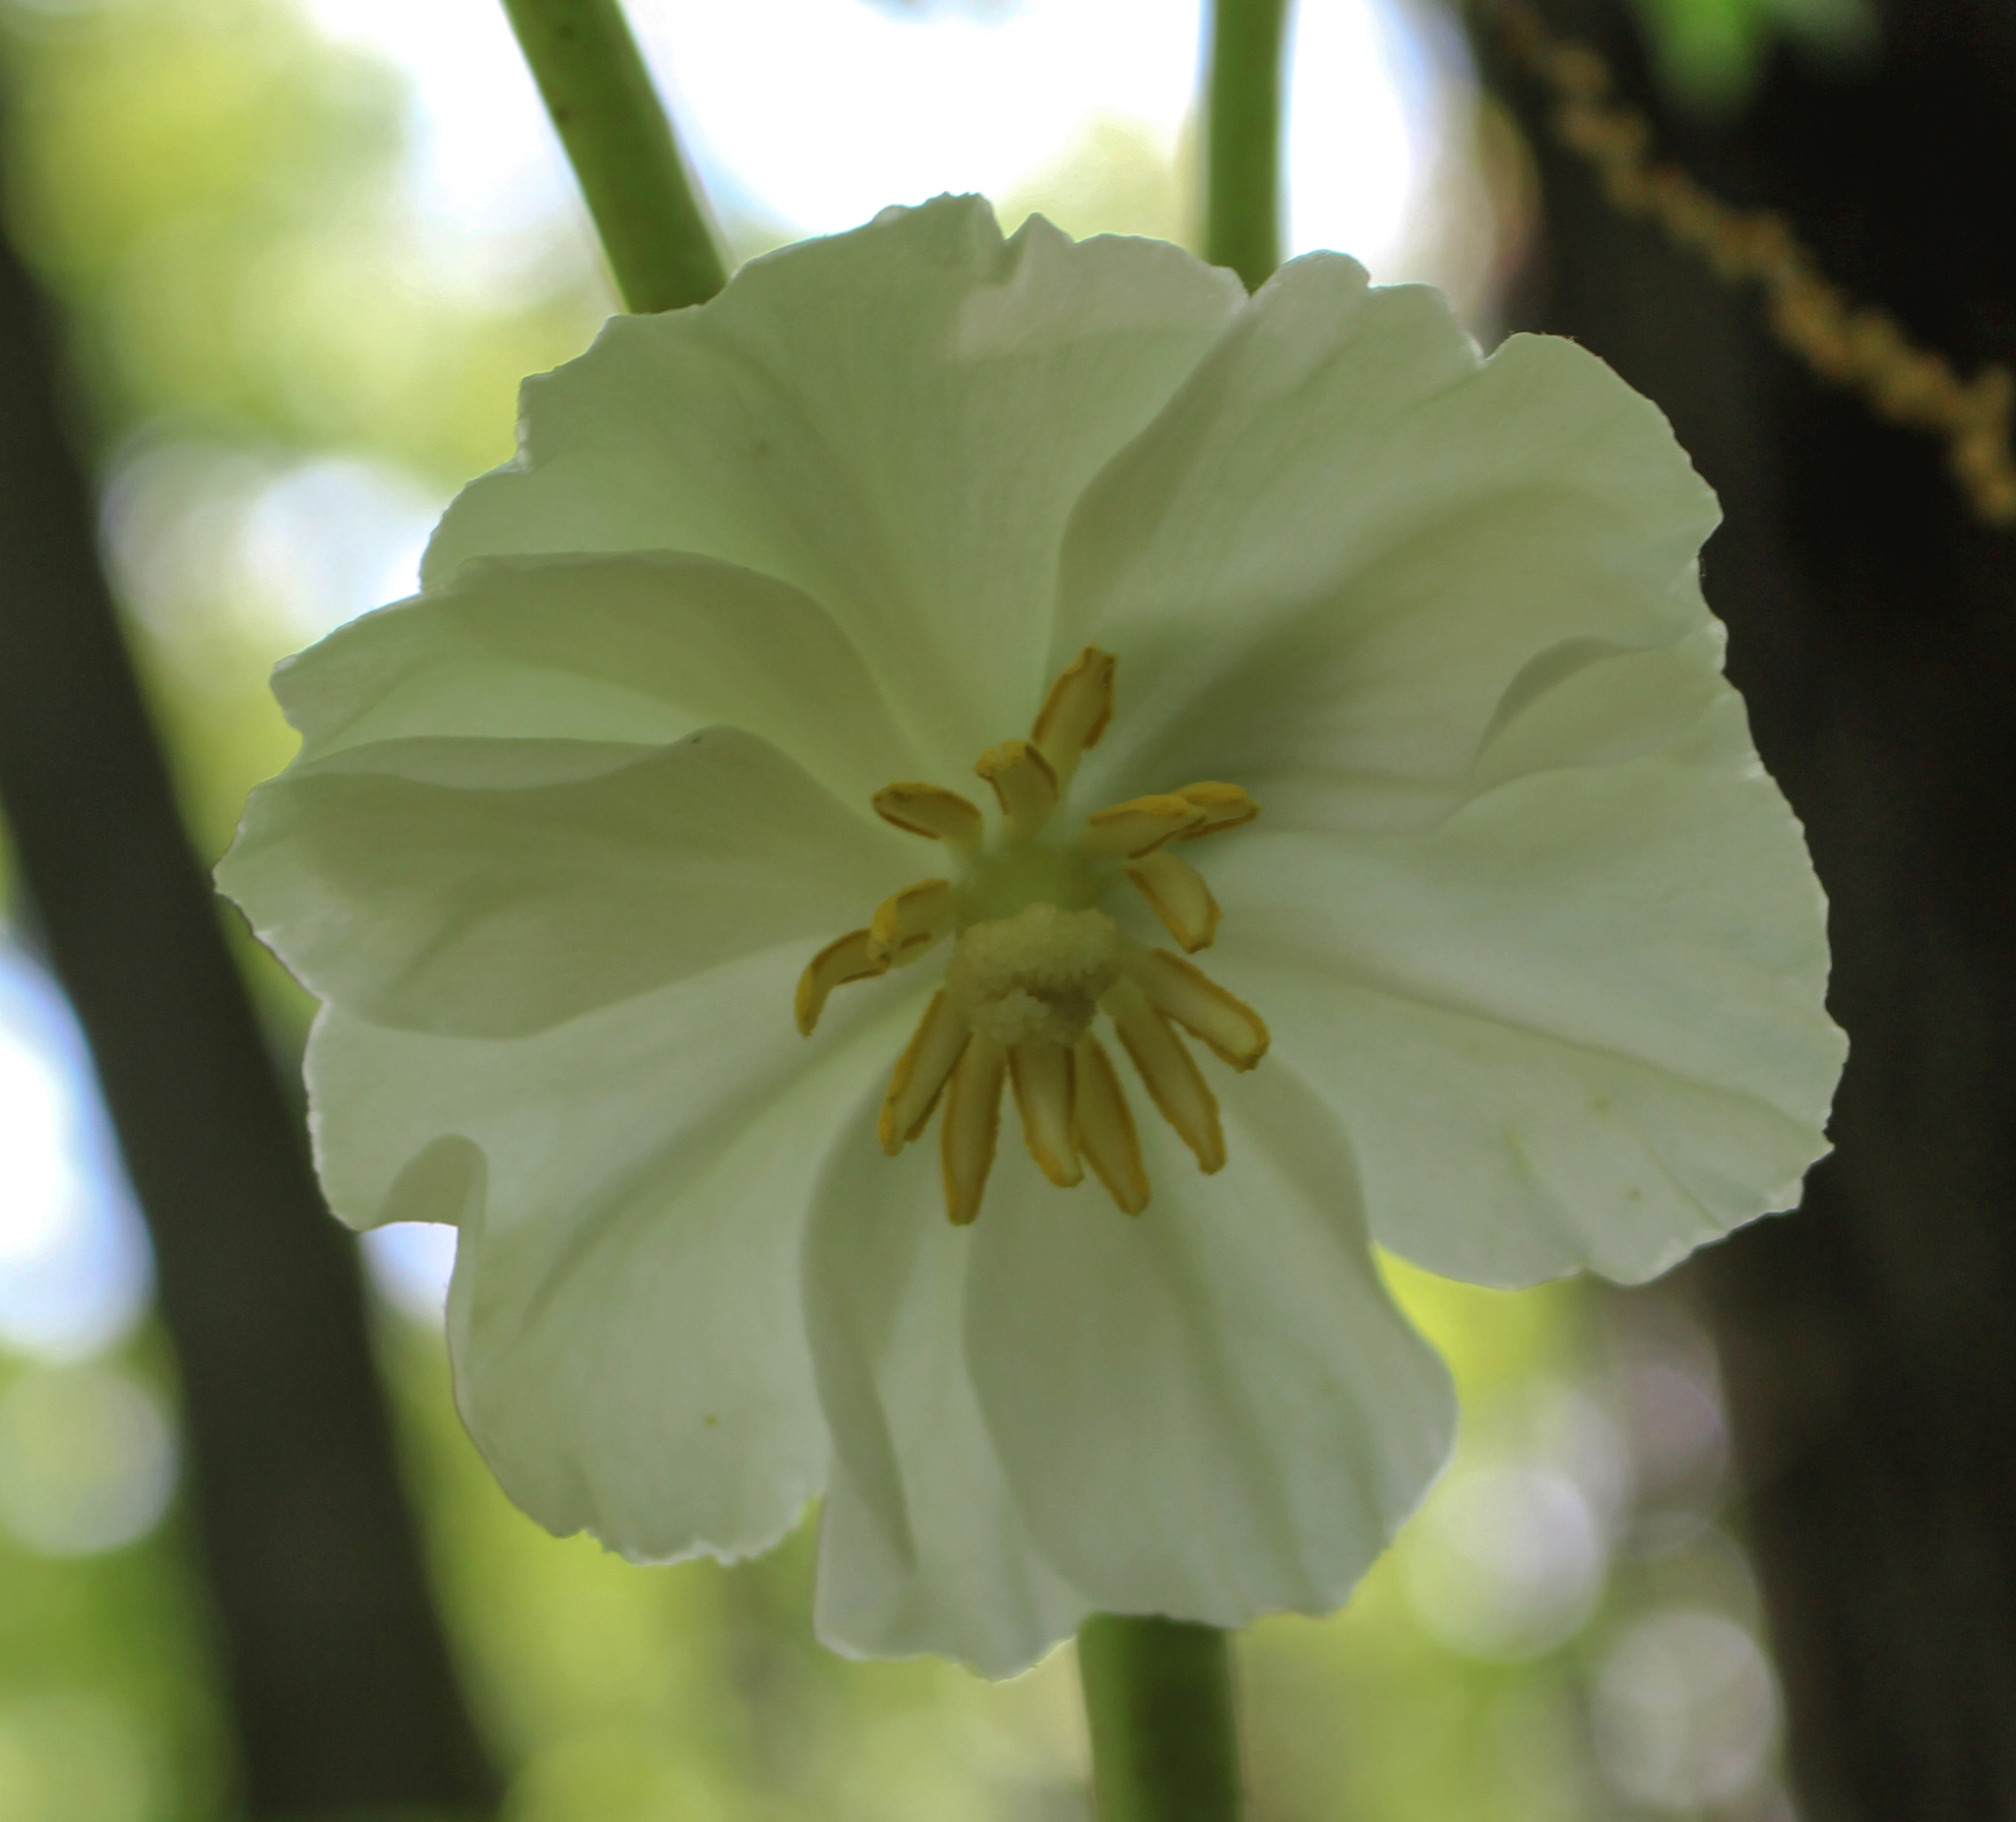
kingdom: Plantae
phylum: Tracheophyta
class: Magnoliopsida
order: Ranunculales
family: Berberidaceae
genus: Podophyllum
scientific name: Podophyllum peltatum
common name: Wild mandrake
